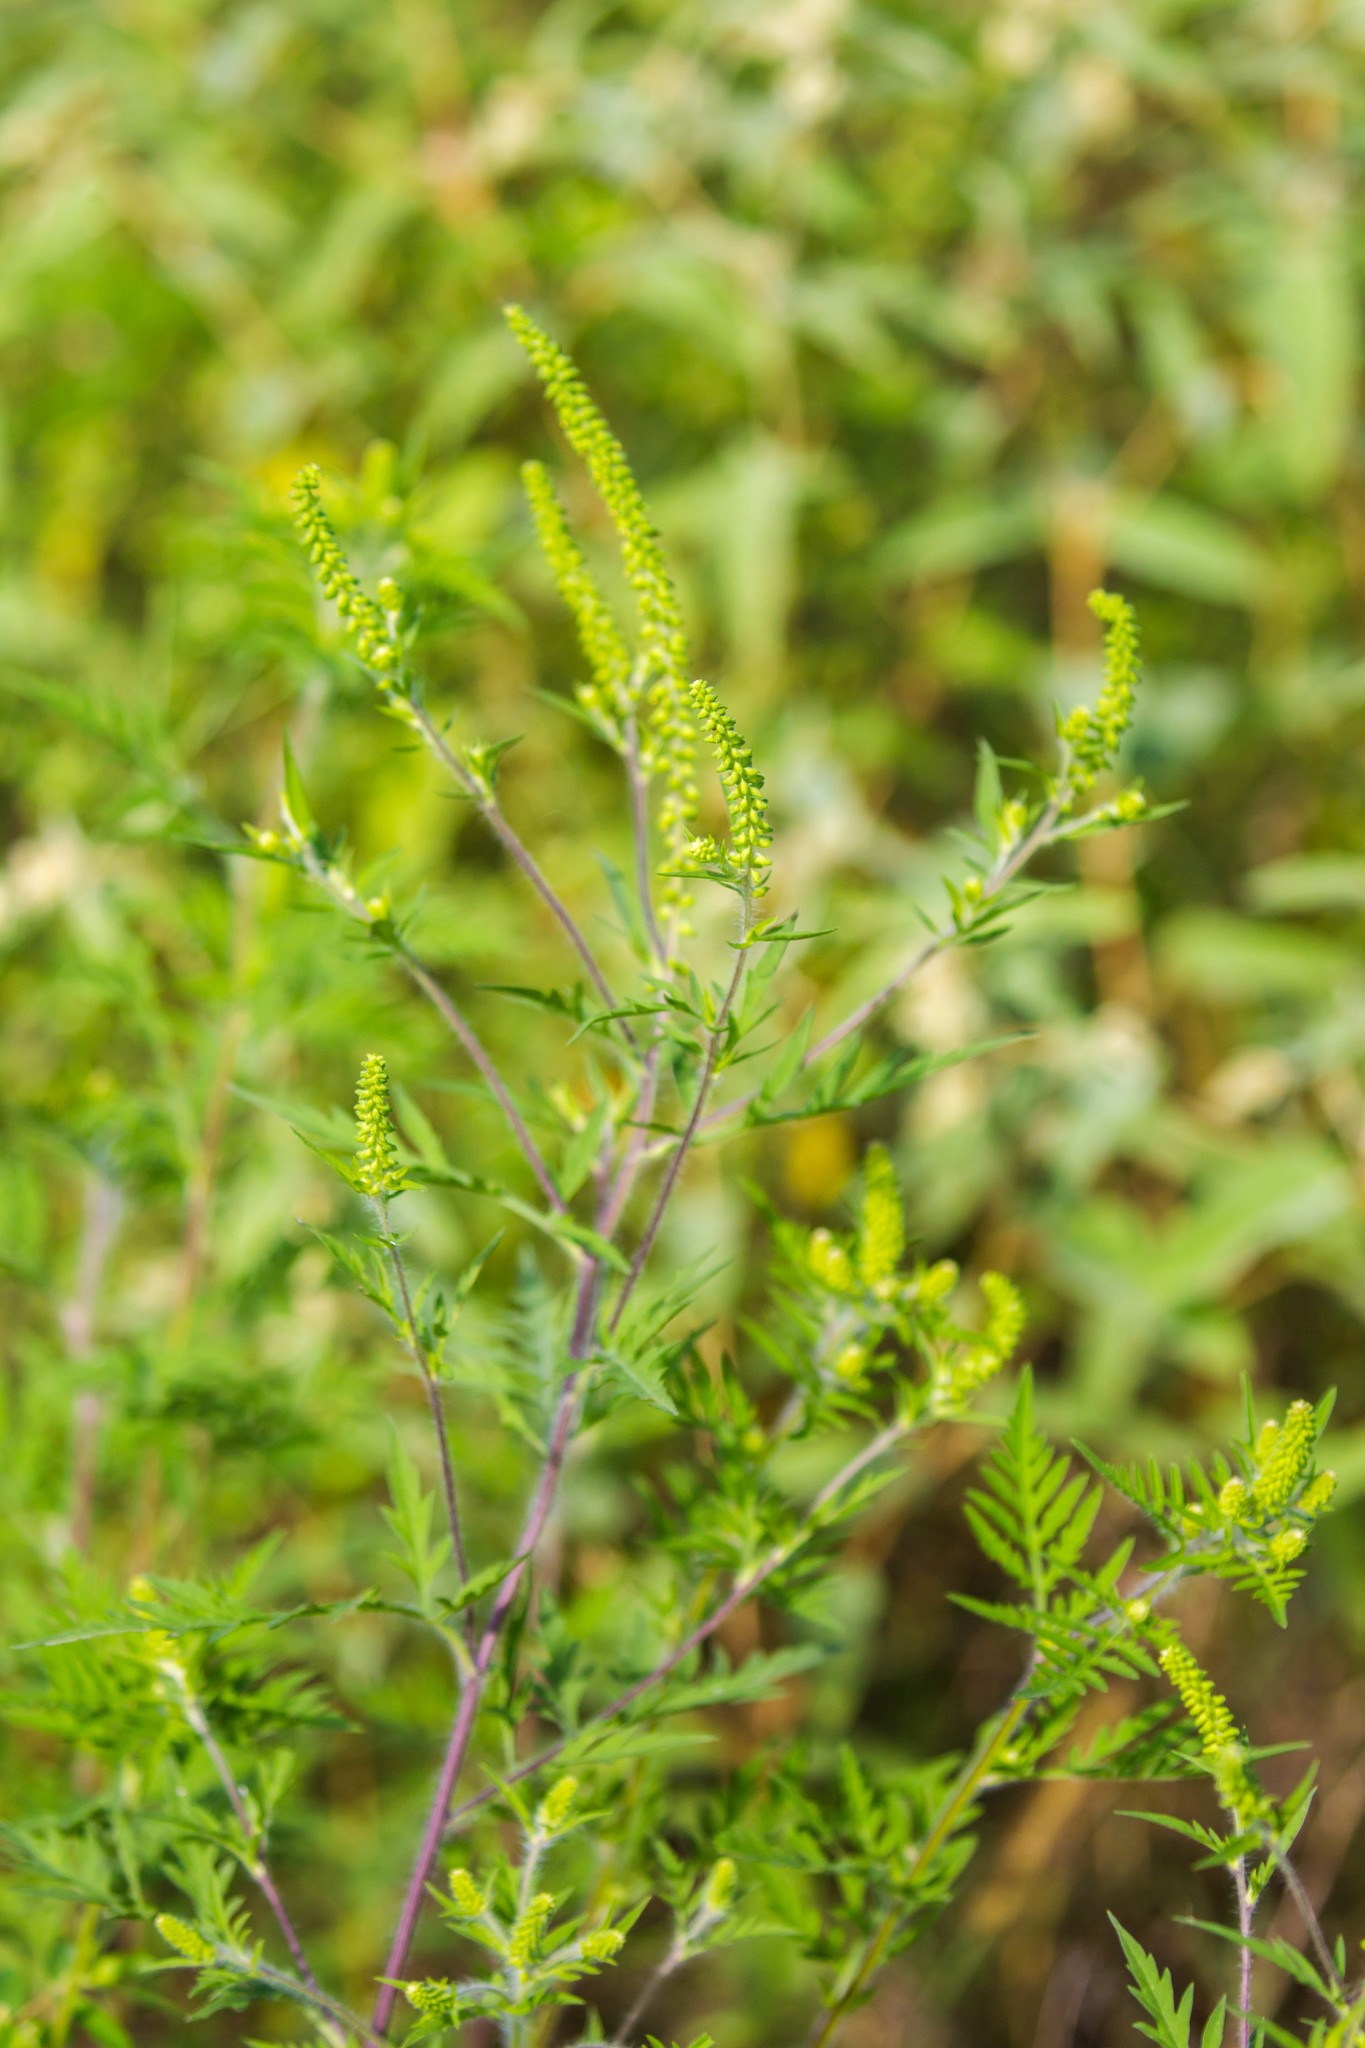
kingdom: Plantae
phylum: Tracheophyta
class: Magnoliopsida
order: Asterales
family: Asteraceae
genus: Ambrosia
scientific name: Ambrosia artemisiifolia
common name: Annual ragweed
